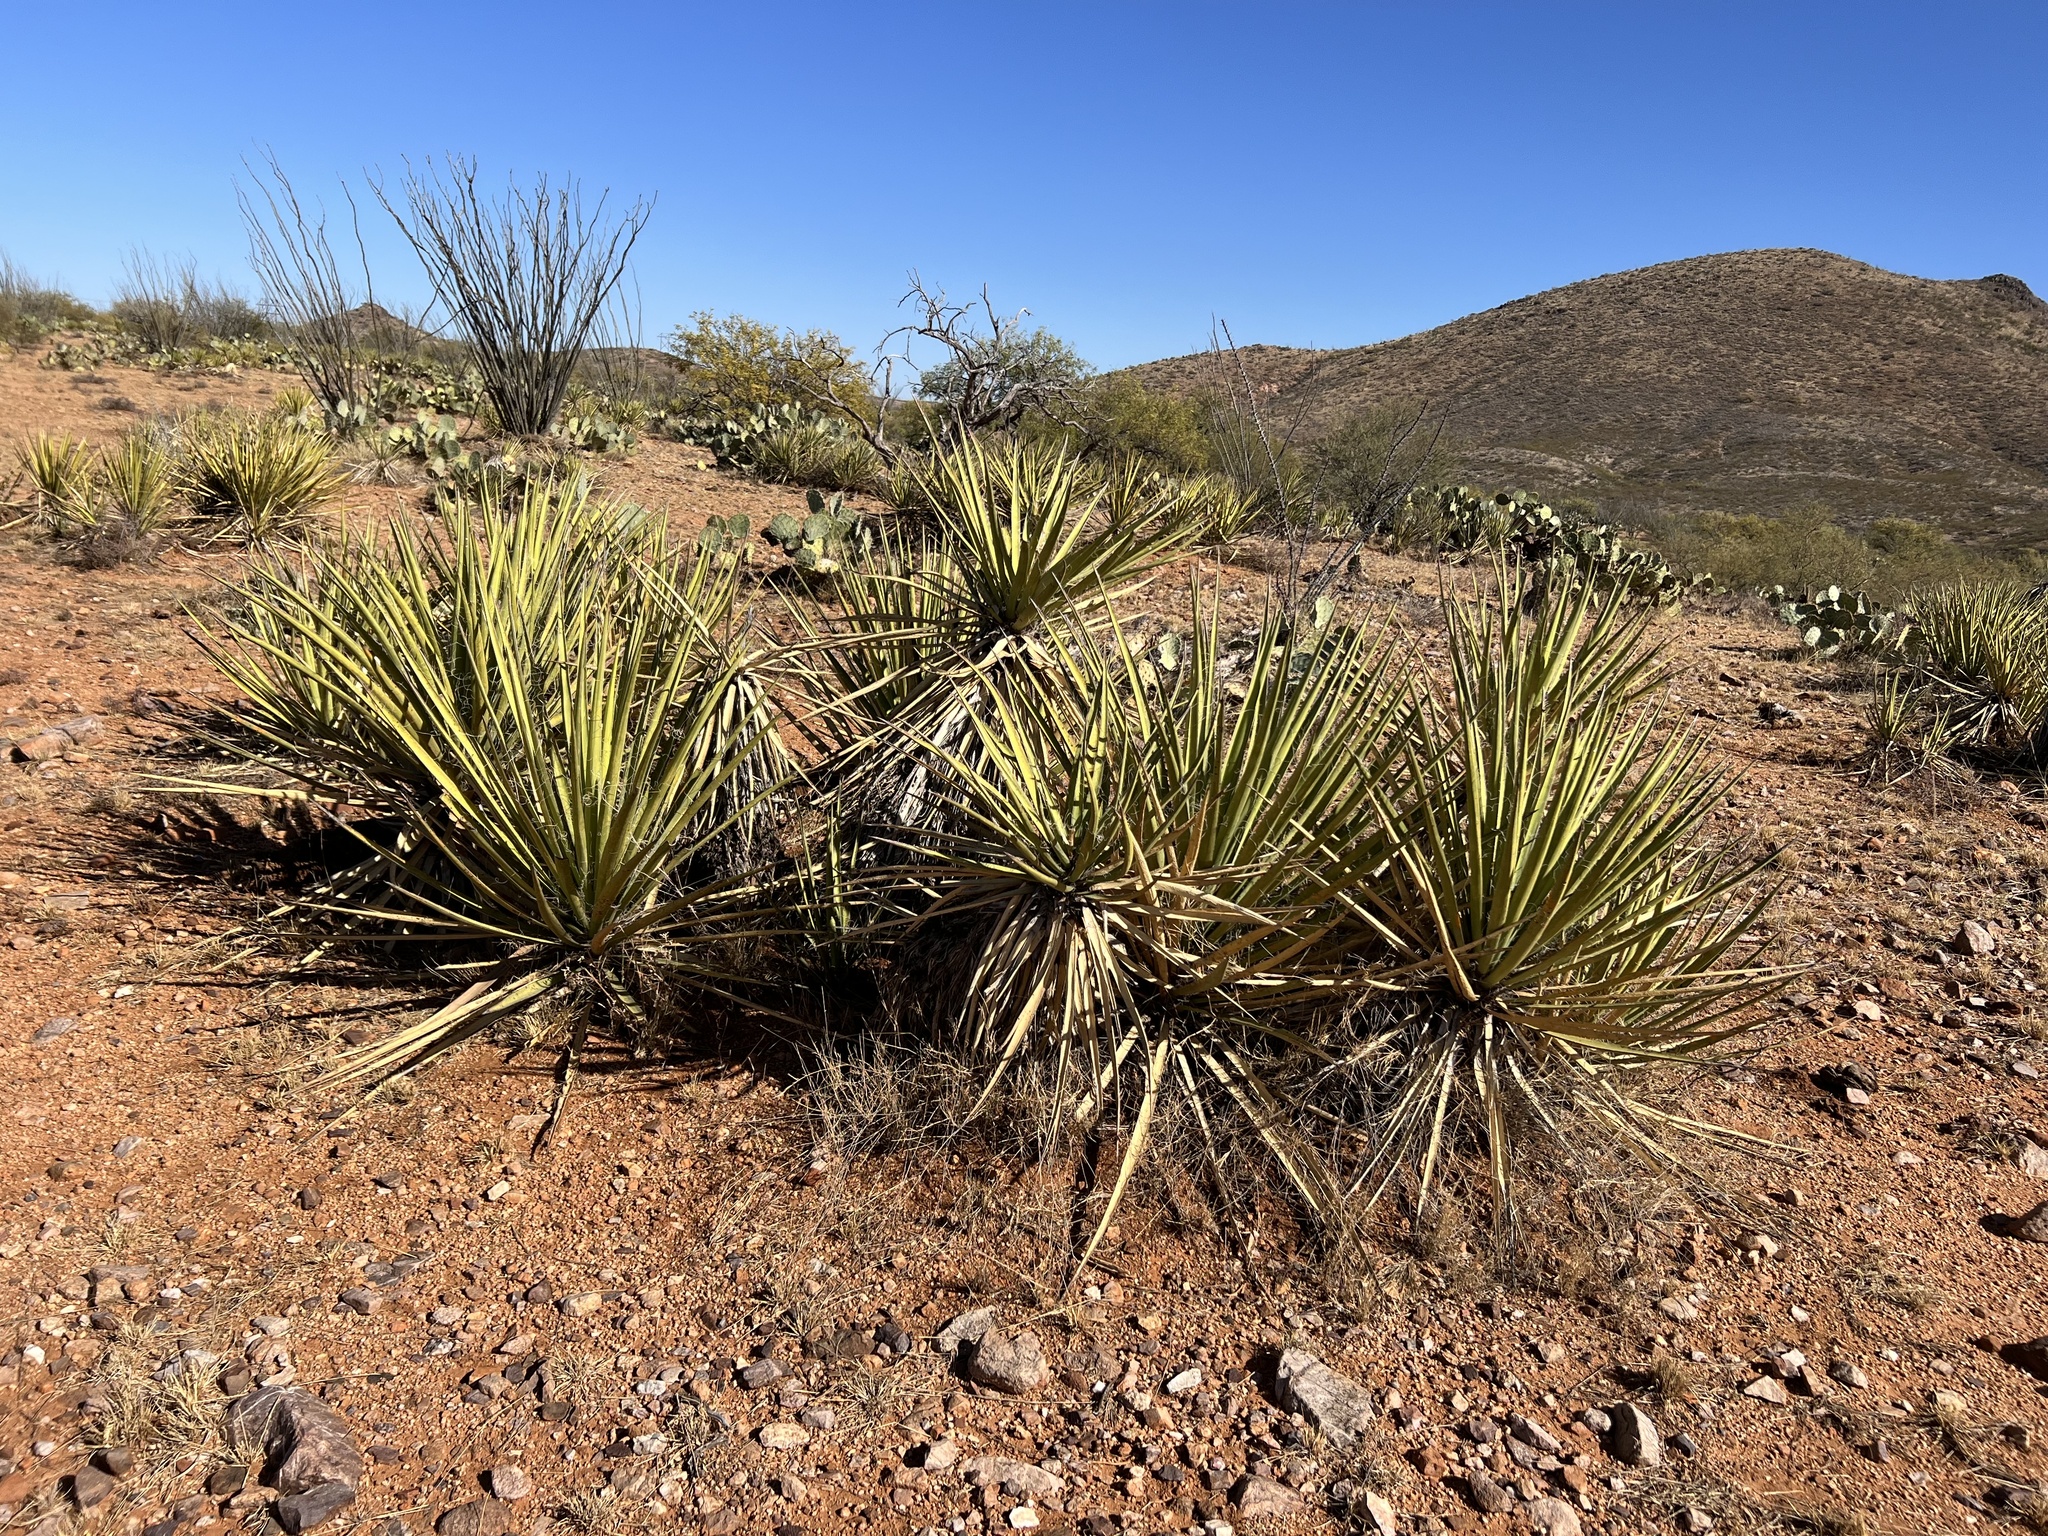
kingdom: Plantae
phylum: Tracheophyta
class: Liliopsida
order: Asparagales
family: Asparagaceae
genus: Yucca
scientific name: Yucca baccata
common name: Banana yucca
